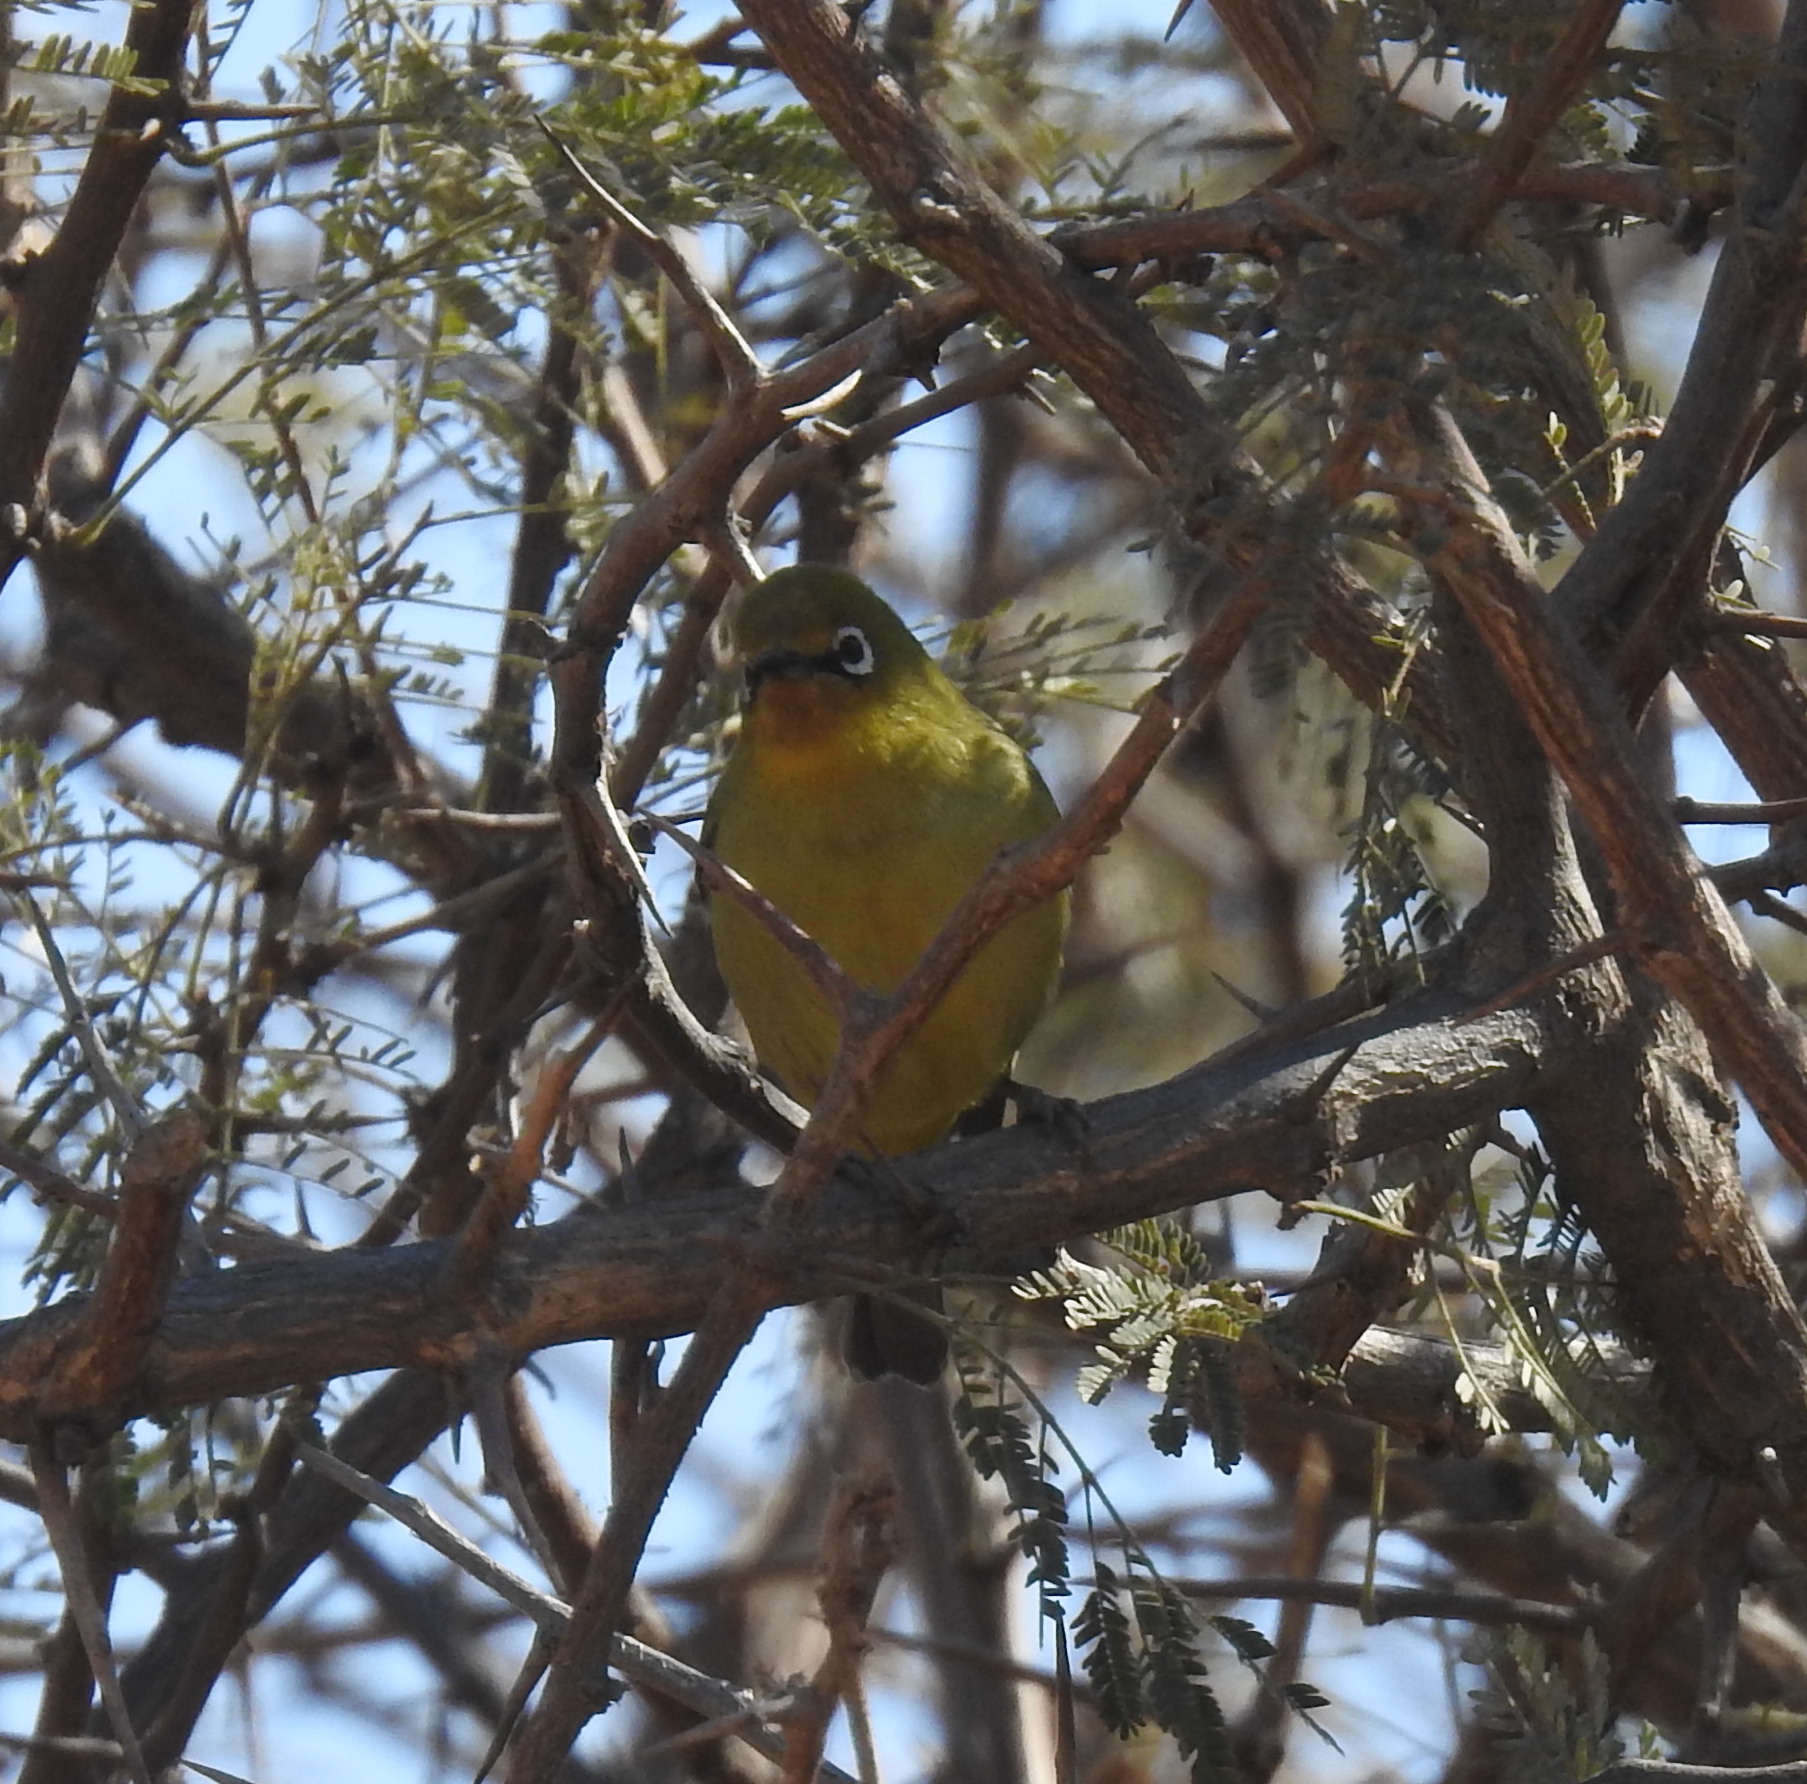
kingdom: Animalia
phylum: Chordata
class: Aves
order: Passeriformes
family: Zosteropidae
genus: Zosterops
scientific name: Zosterops virens
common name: Cape white-eye
